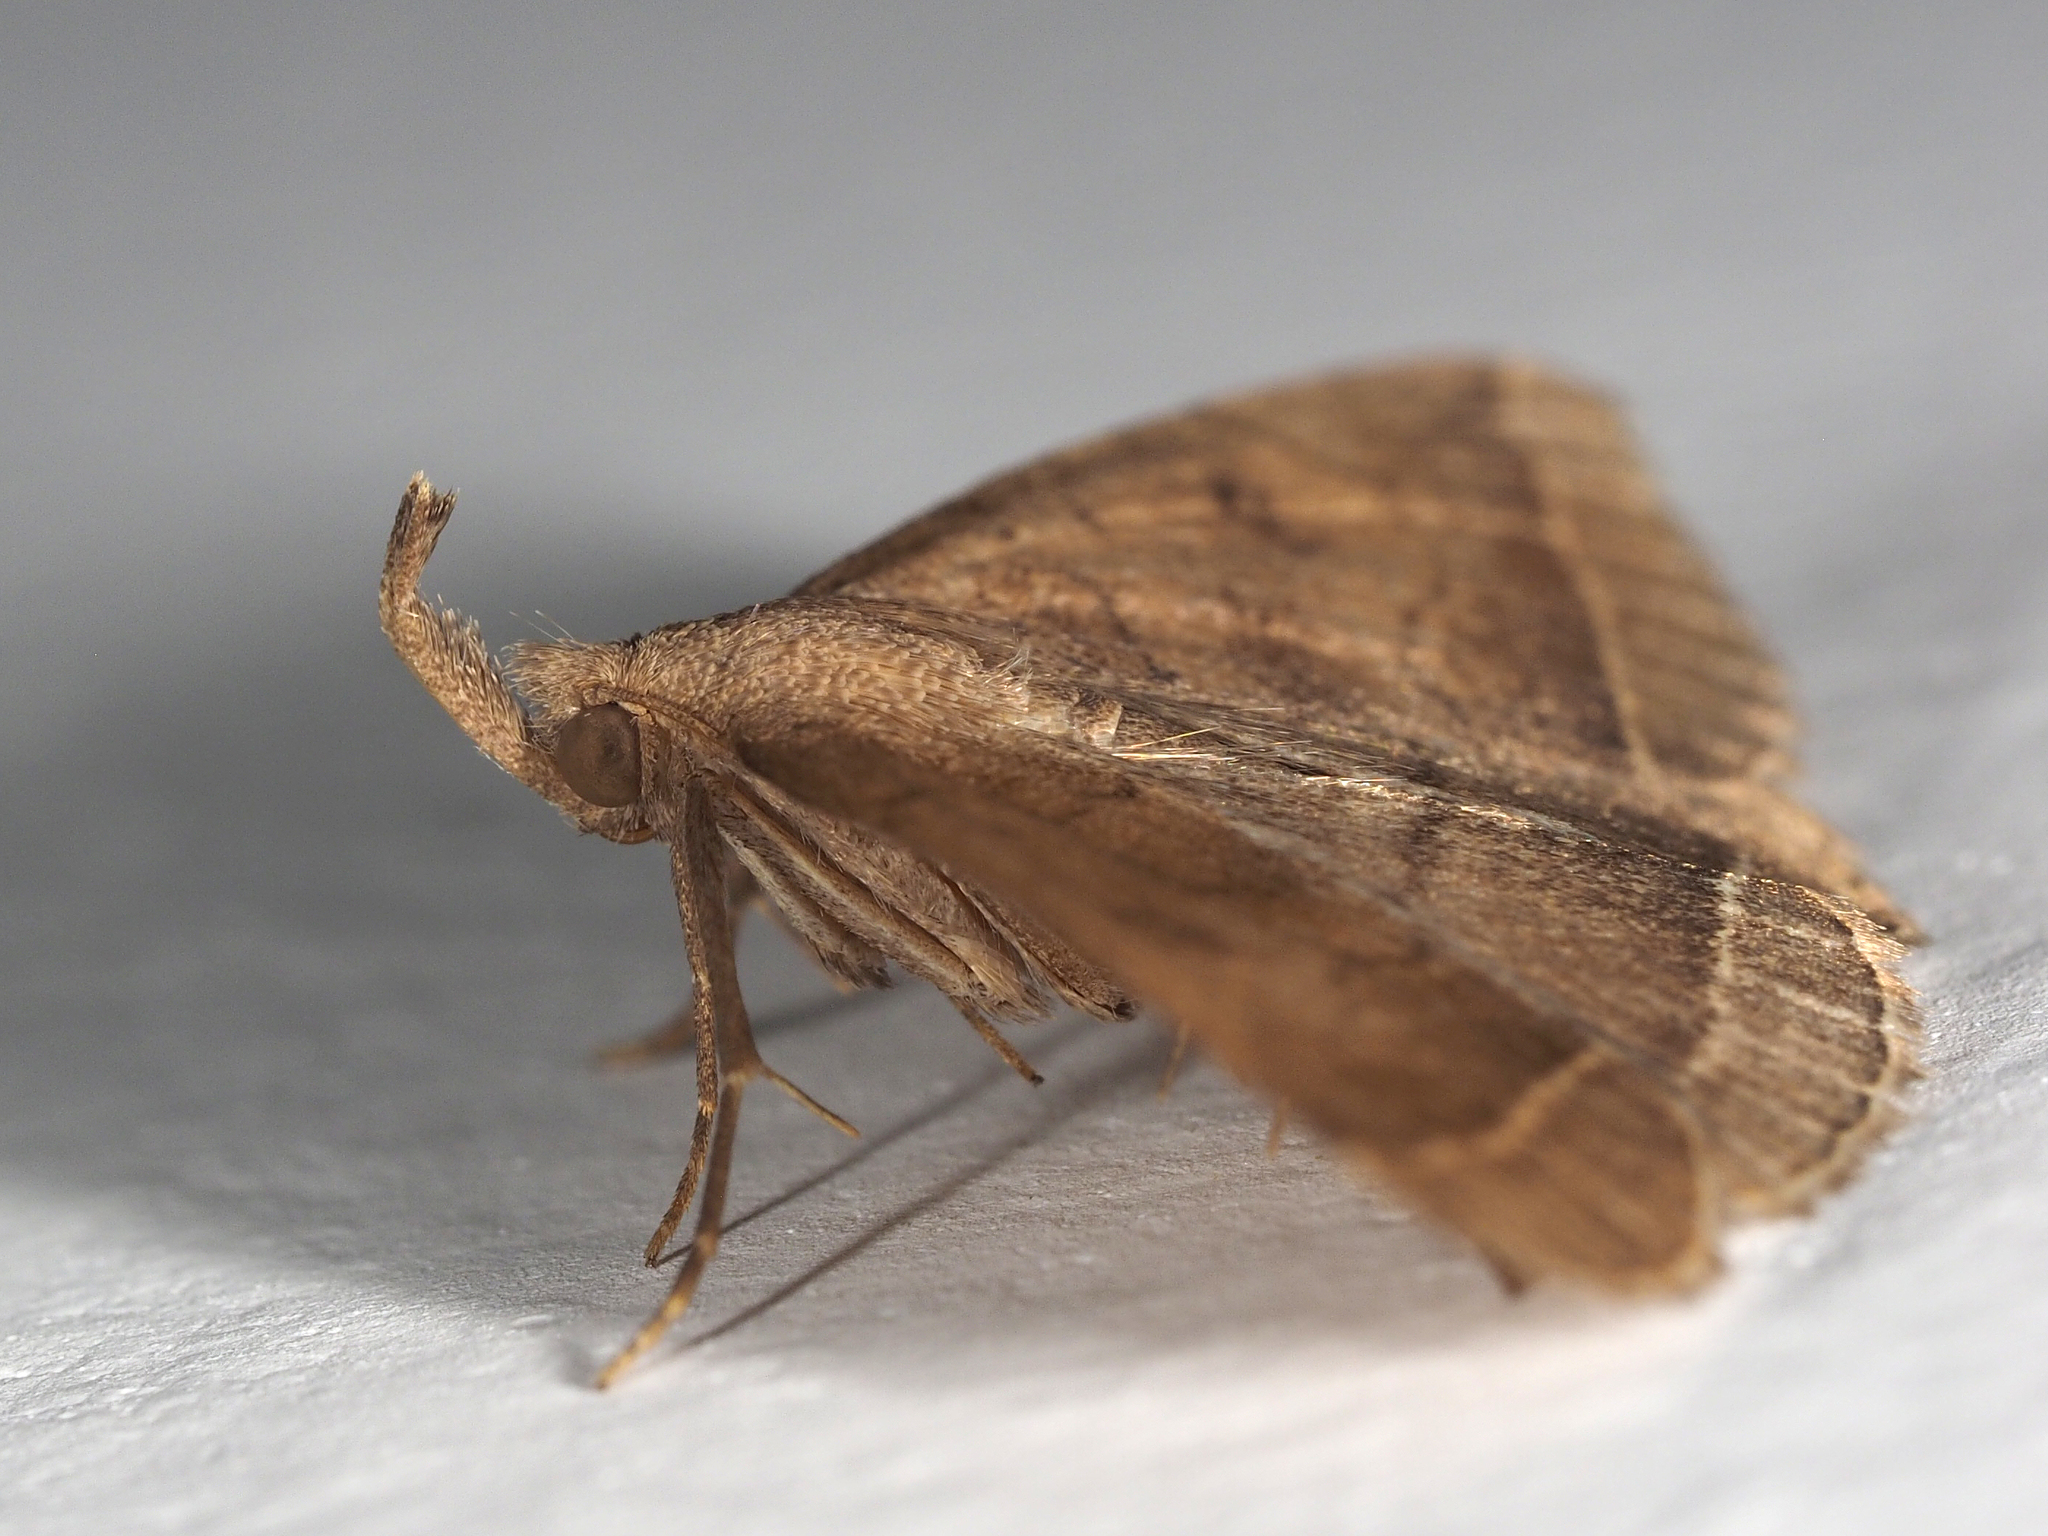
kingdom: Animalia
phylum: Arthropoda
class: Insecta
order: Lepidoptera
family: Erebidae
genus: Pechipogo
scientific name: Pechipogo plumigeralis
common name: Plumed fan-foot
